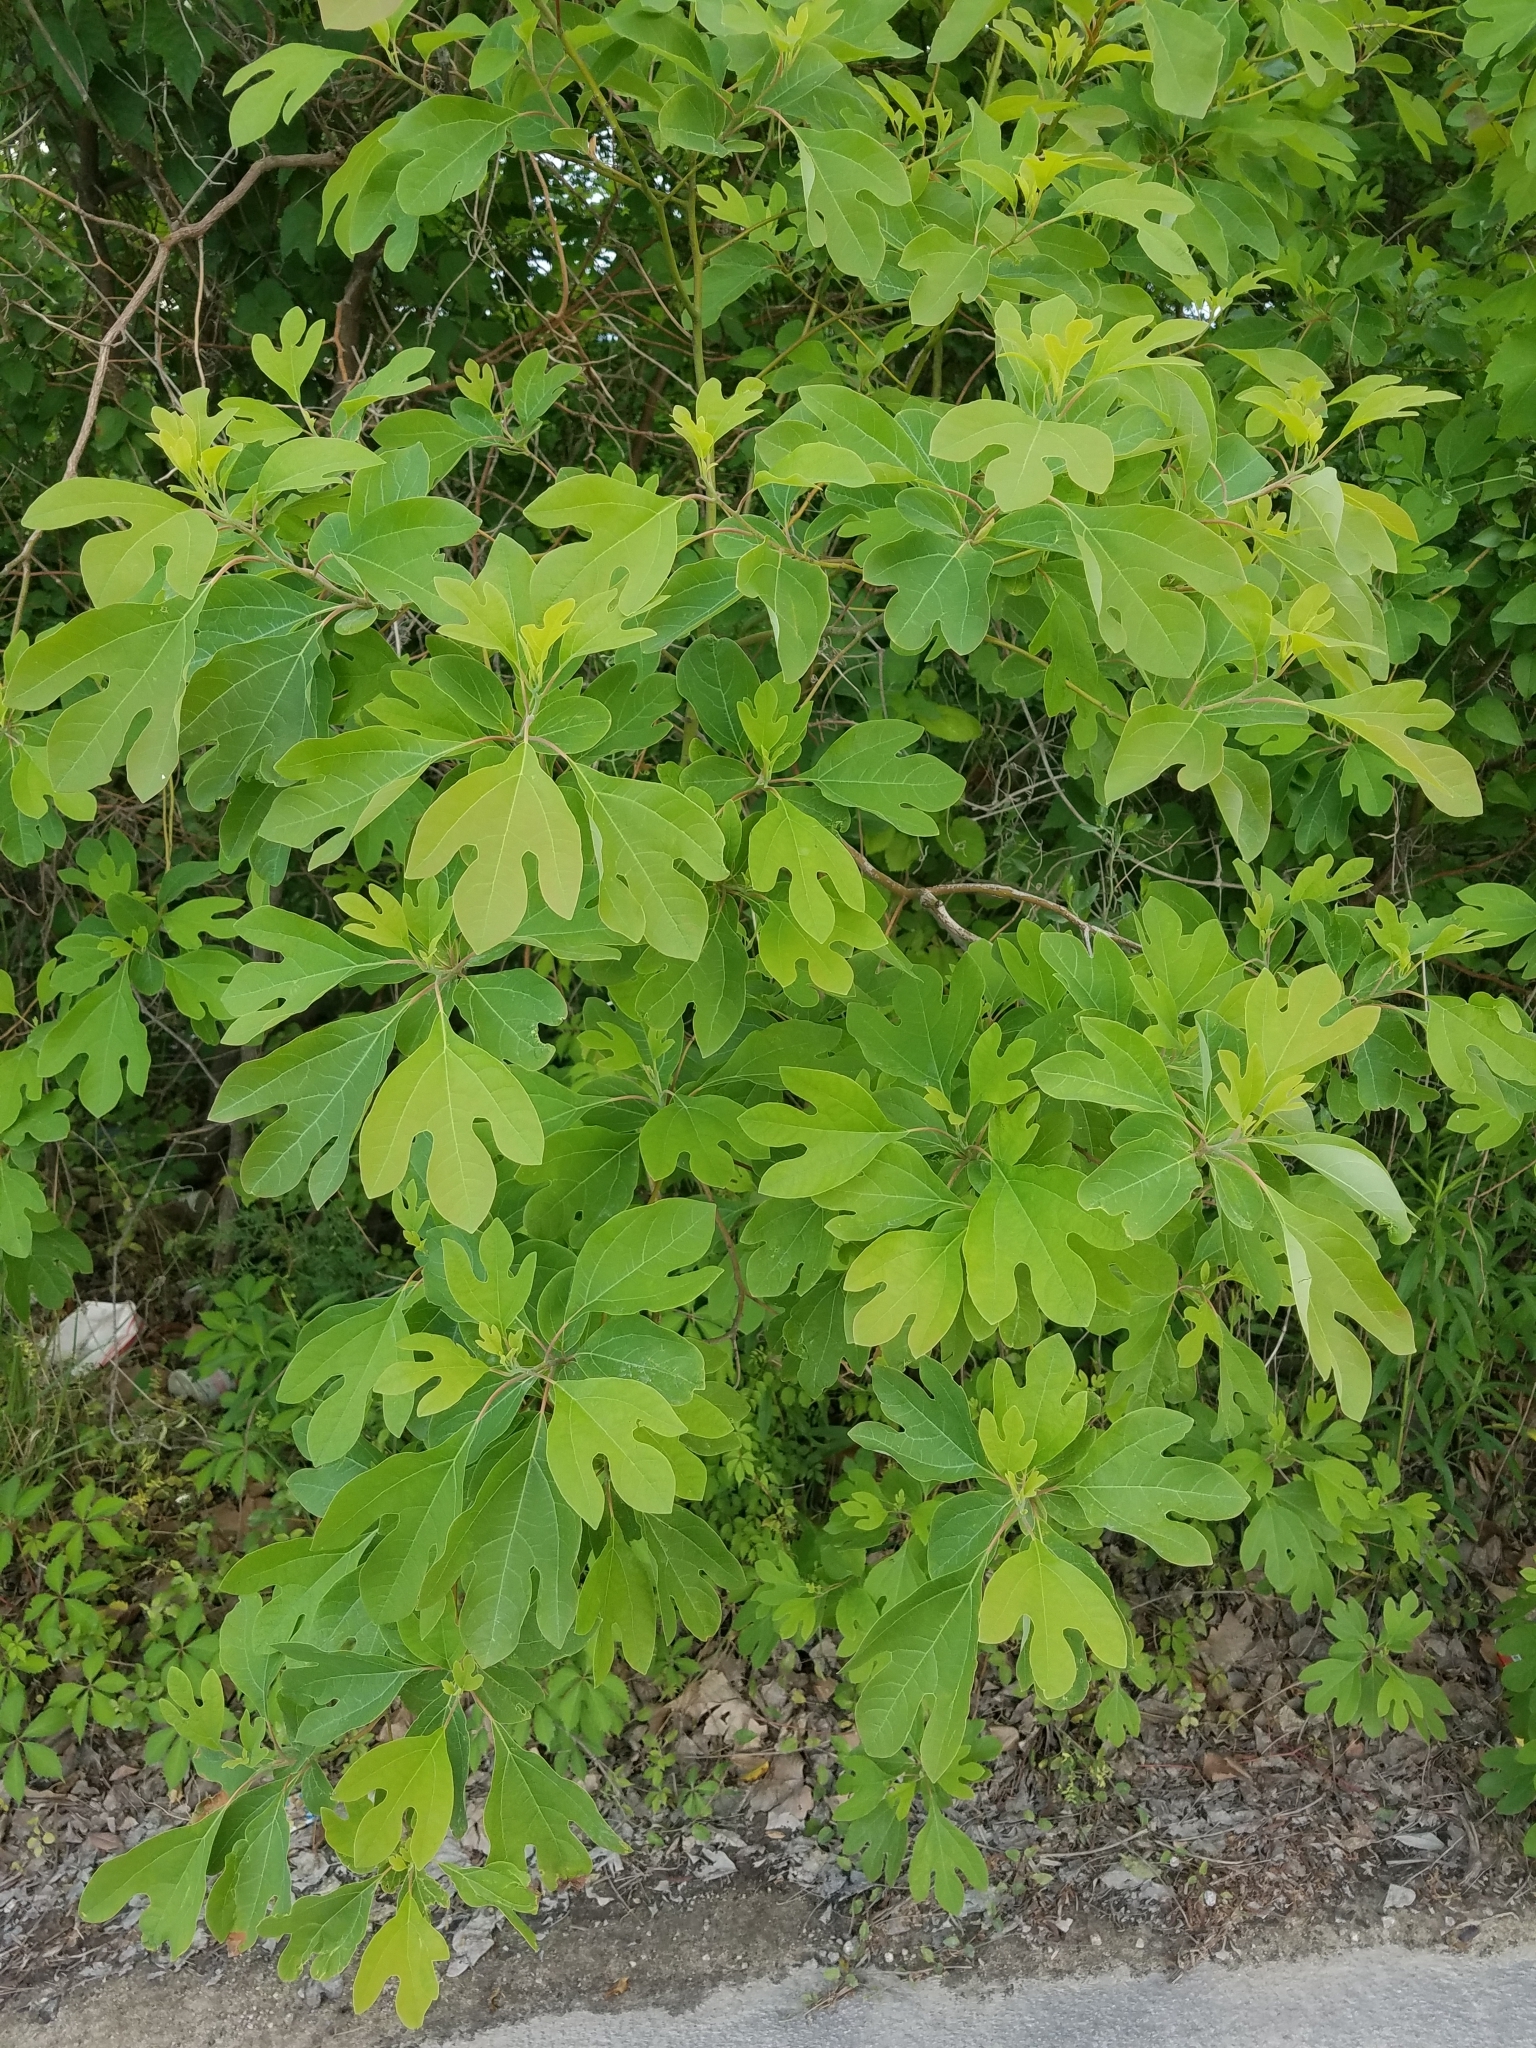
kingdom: Plantae
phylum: Tracheophyta
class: Magnoliopsida
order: Laurales
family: Lauraceae
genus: Sassafras
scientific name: Sassafras albidum
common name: Sassafras
